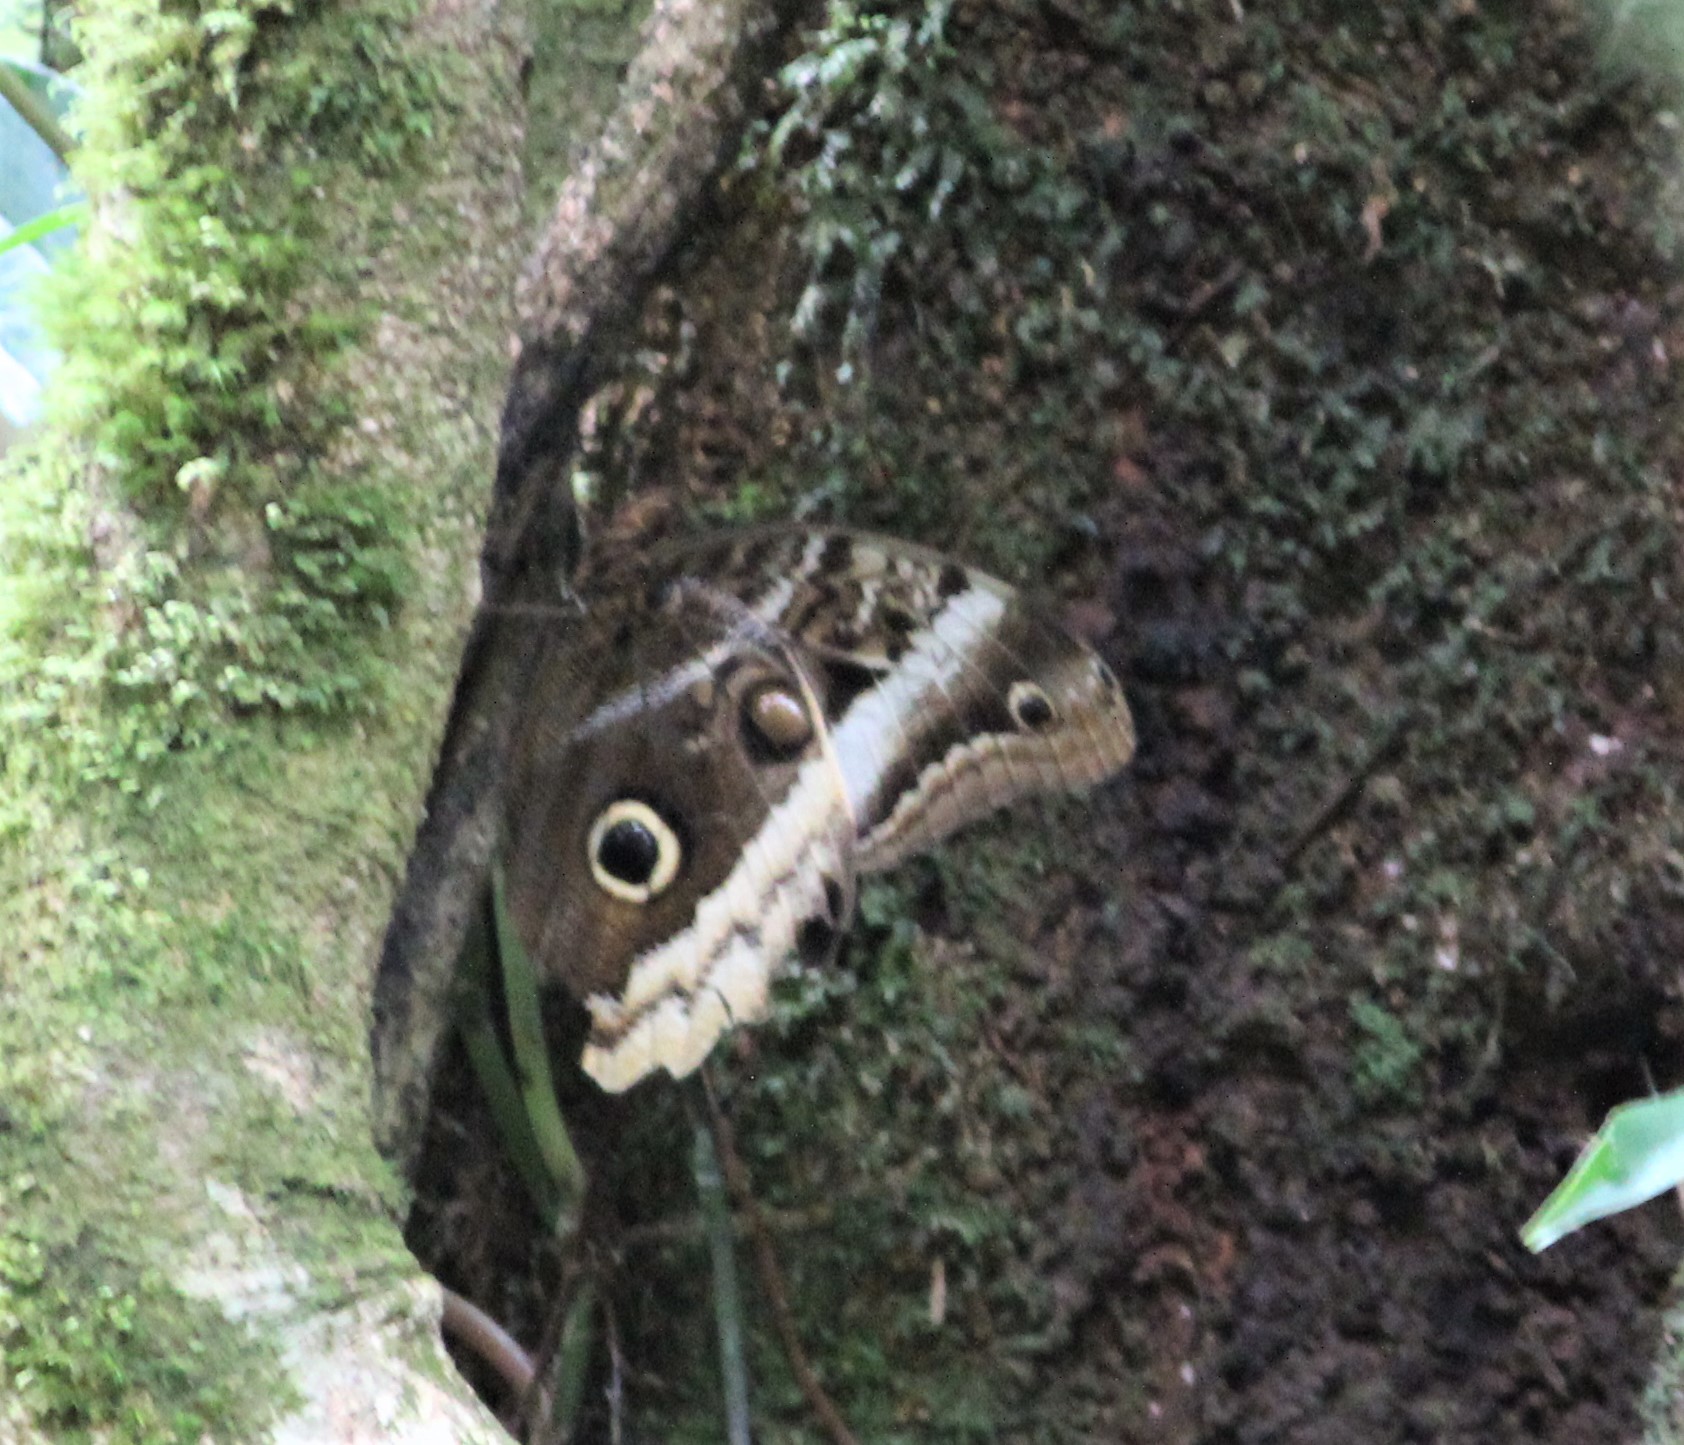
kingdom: Animalia
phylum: Arthropoda
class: Insecta
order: Lepidoptera
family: Nymphalidae
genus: Caligo
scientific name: Caligo atreus
